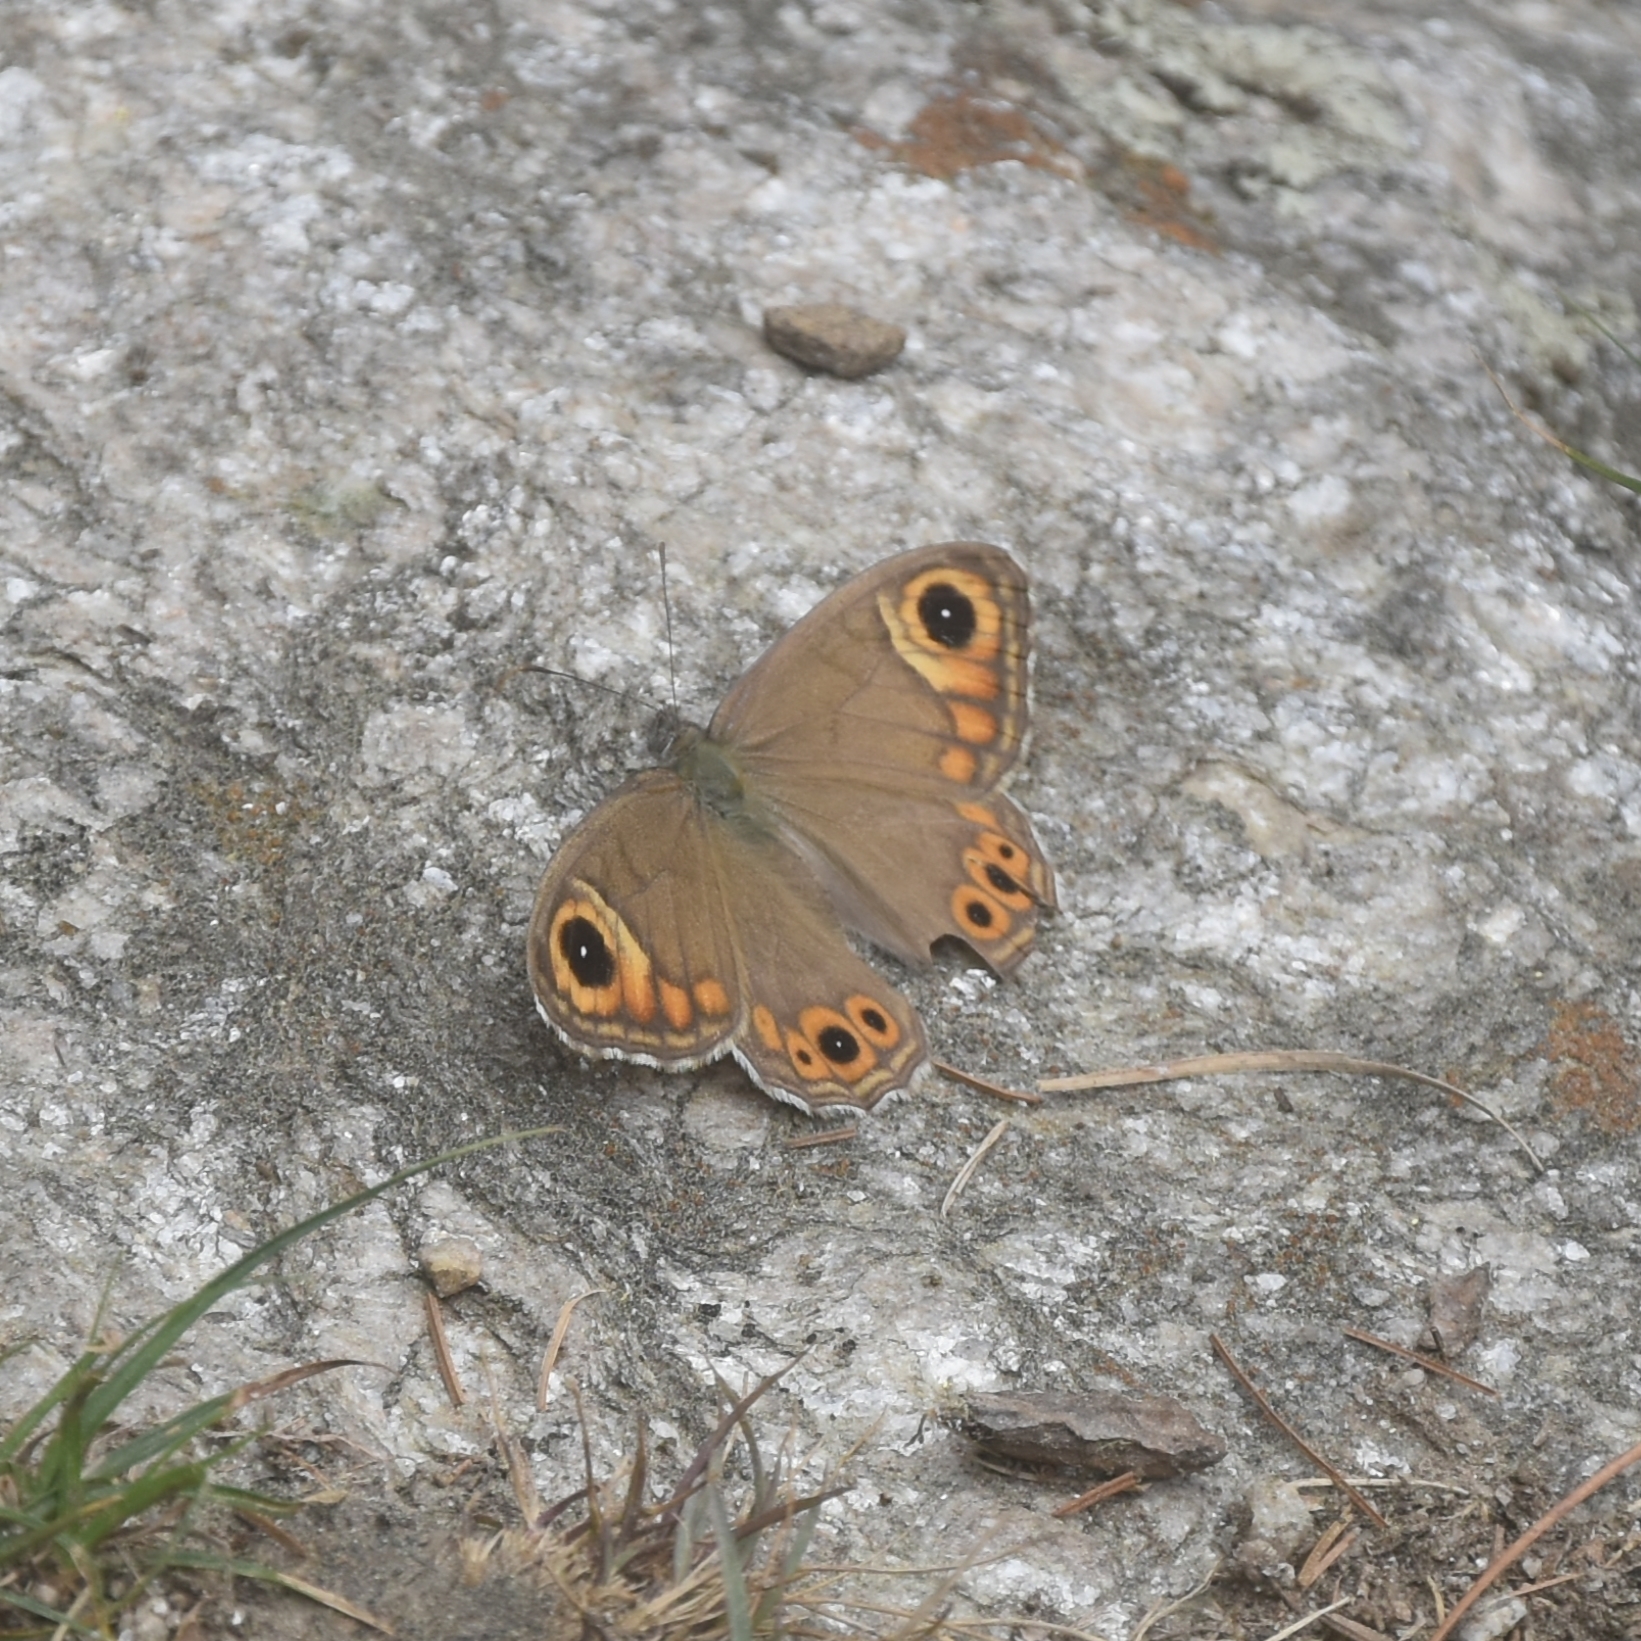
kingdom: Animalia
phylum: Arthropoda
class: Insecta
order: Lepidoptera
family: Nymphalidae
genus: Pararge
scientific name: Pararge Lasiommata schakra
